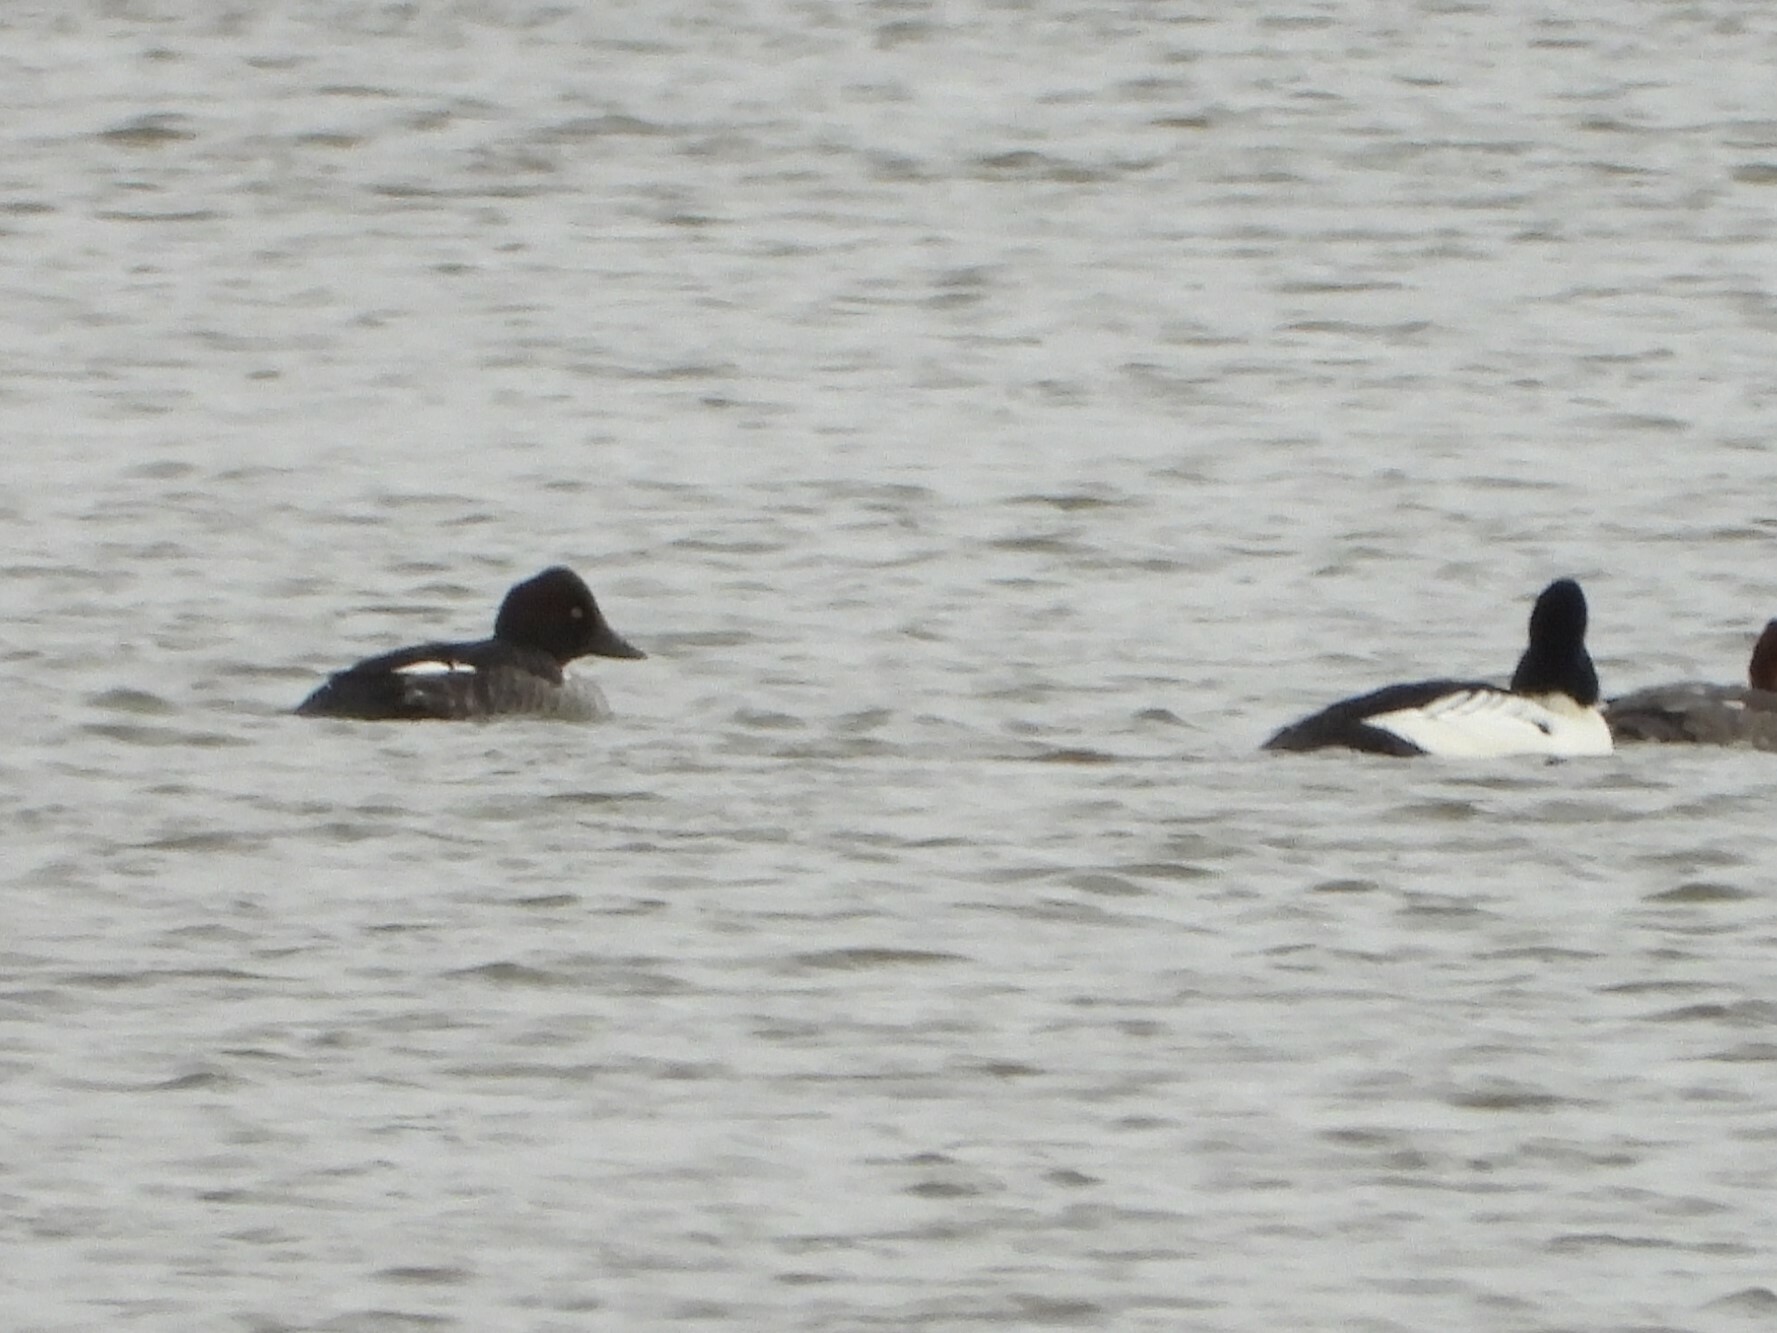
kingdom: Animalia
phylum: Chordata
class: Aves
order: Anseriformes
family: Anatidae
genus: Bucephala
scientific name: Bucephala clangula
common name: Common goldeneye
